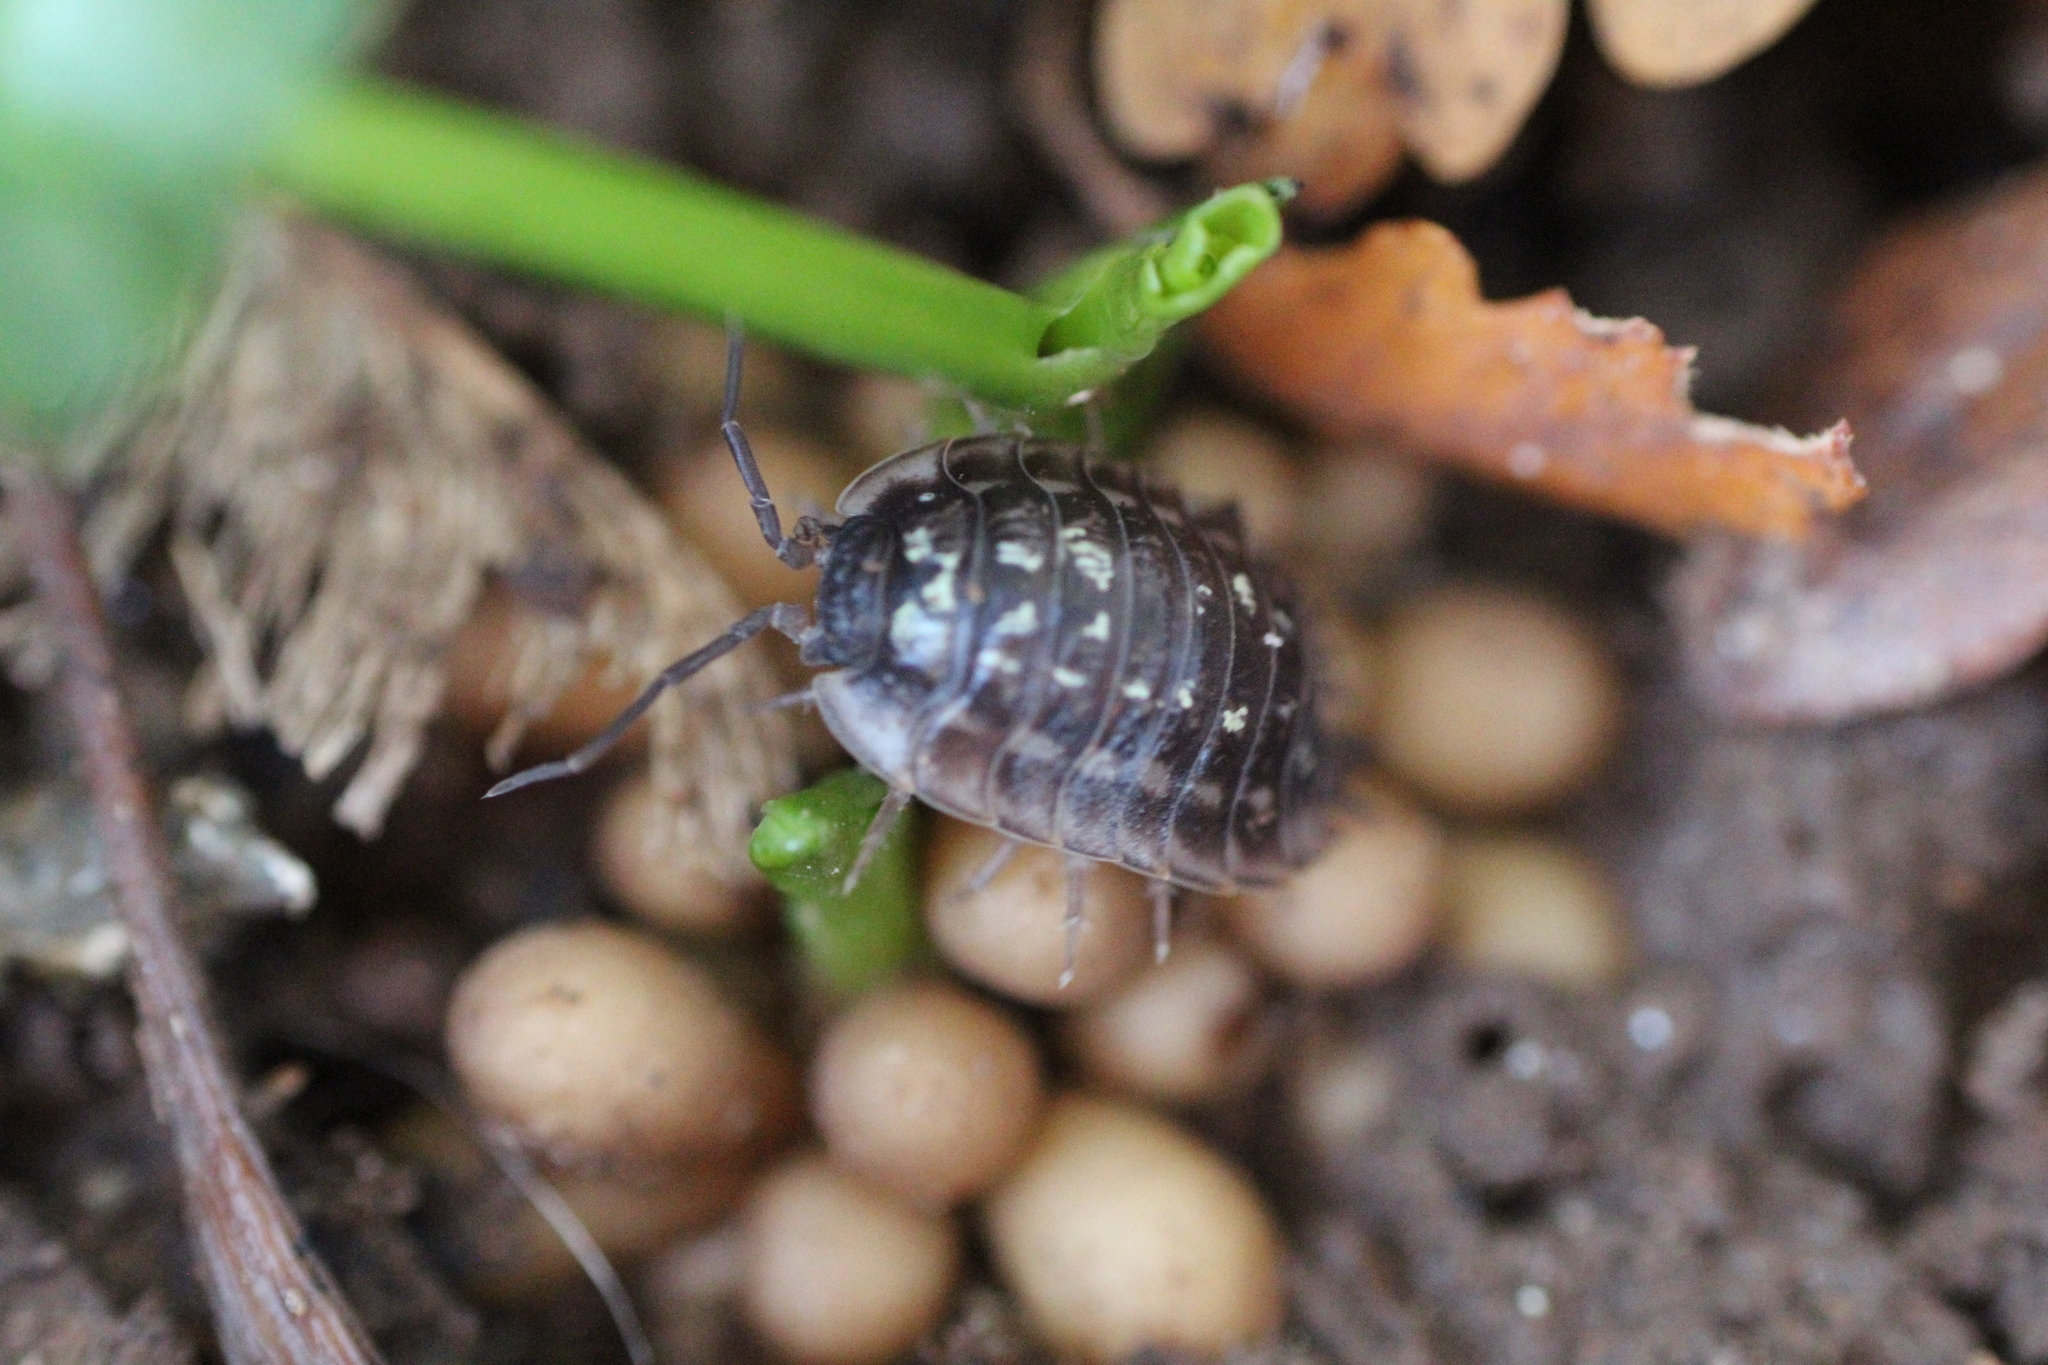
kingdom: Animalia
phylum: Arthropoda
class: Malacostraca
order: Isopoda
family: Oniscidae
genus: Oniscus
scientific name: Oniscus asellus
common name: Common shiny woodlouse
